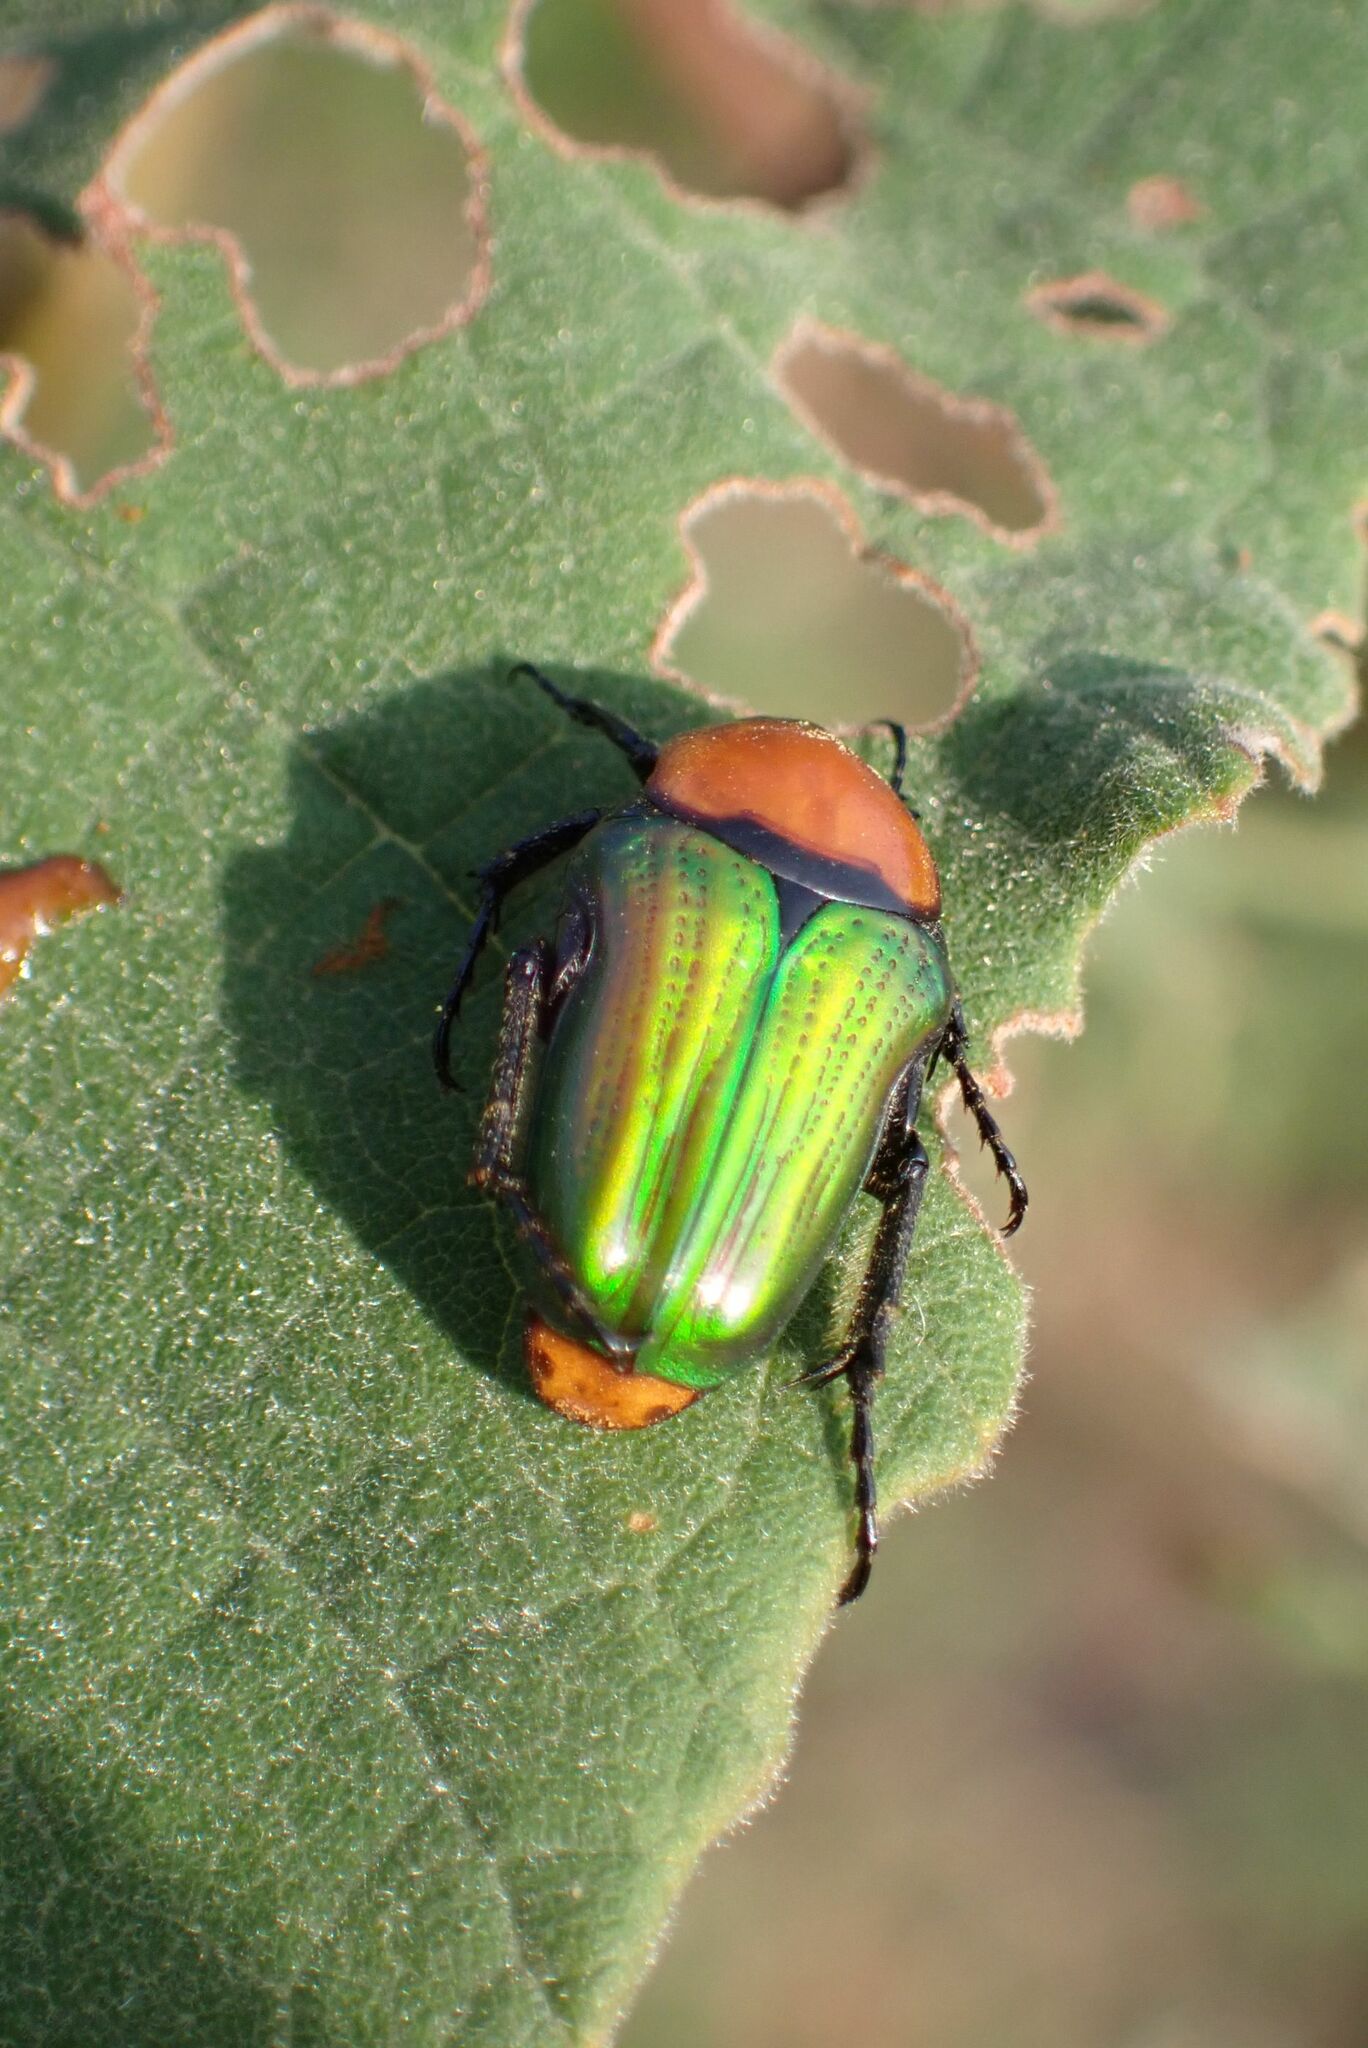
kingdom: Animalia
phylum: Arthropoda
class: Insecta
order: Coleoptera
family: Scarabaeidae
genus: Leucocelis
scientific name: Leucocelis amethystina
